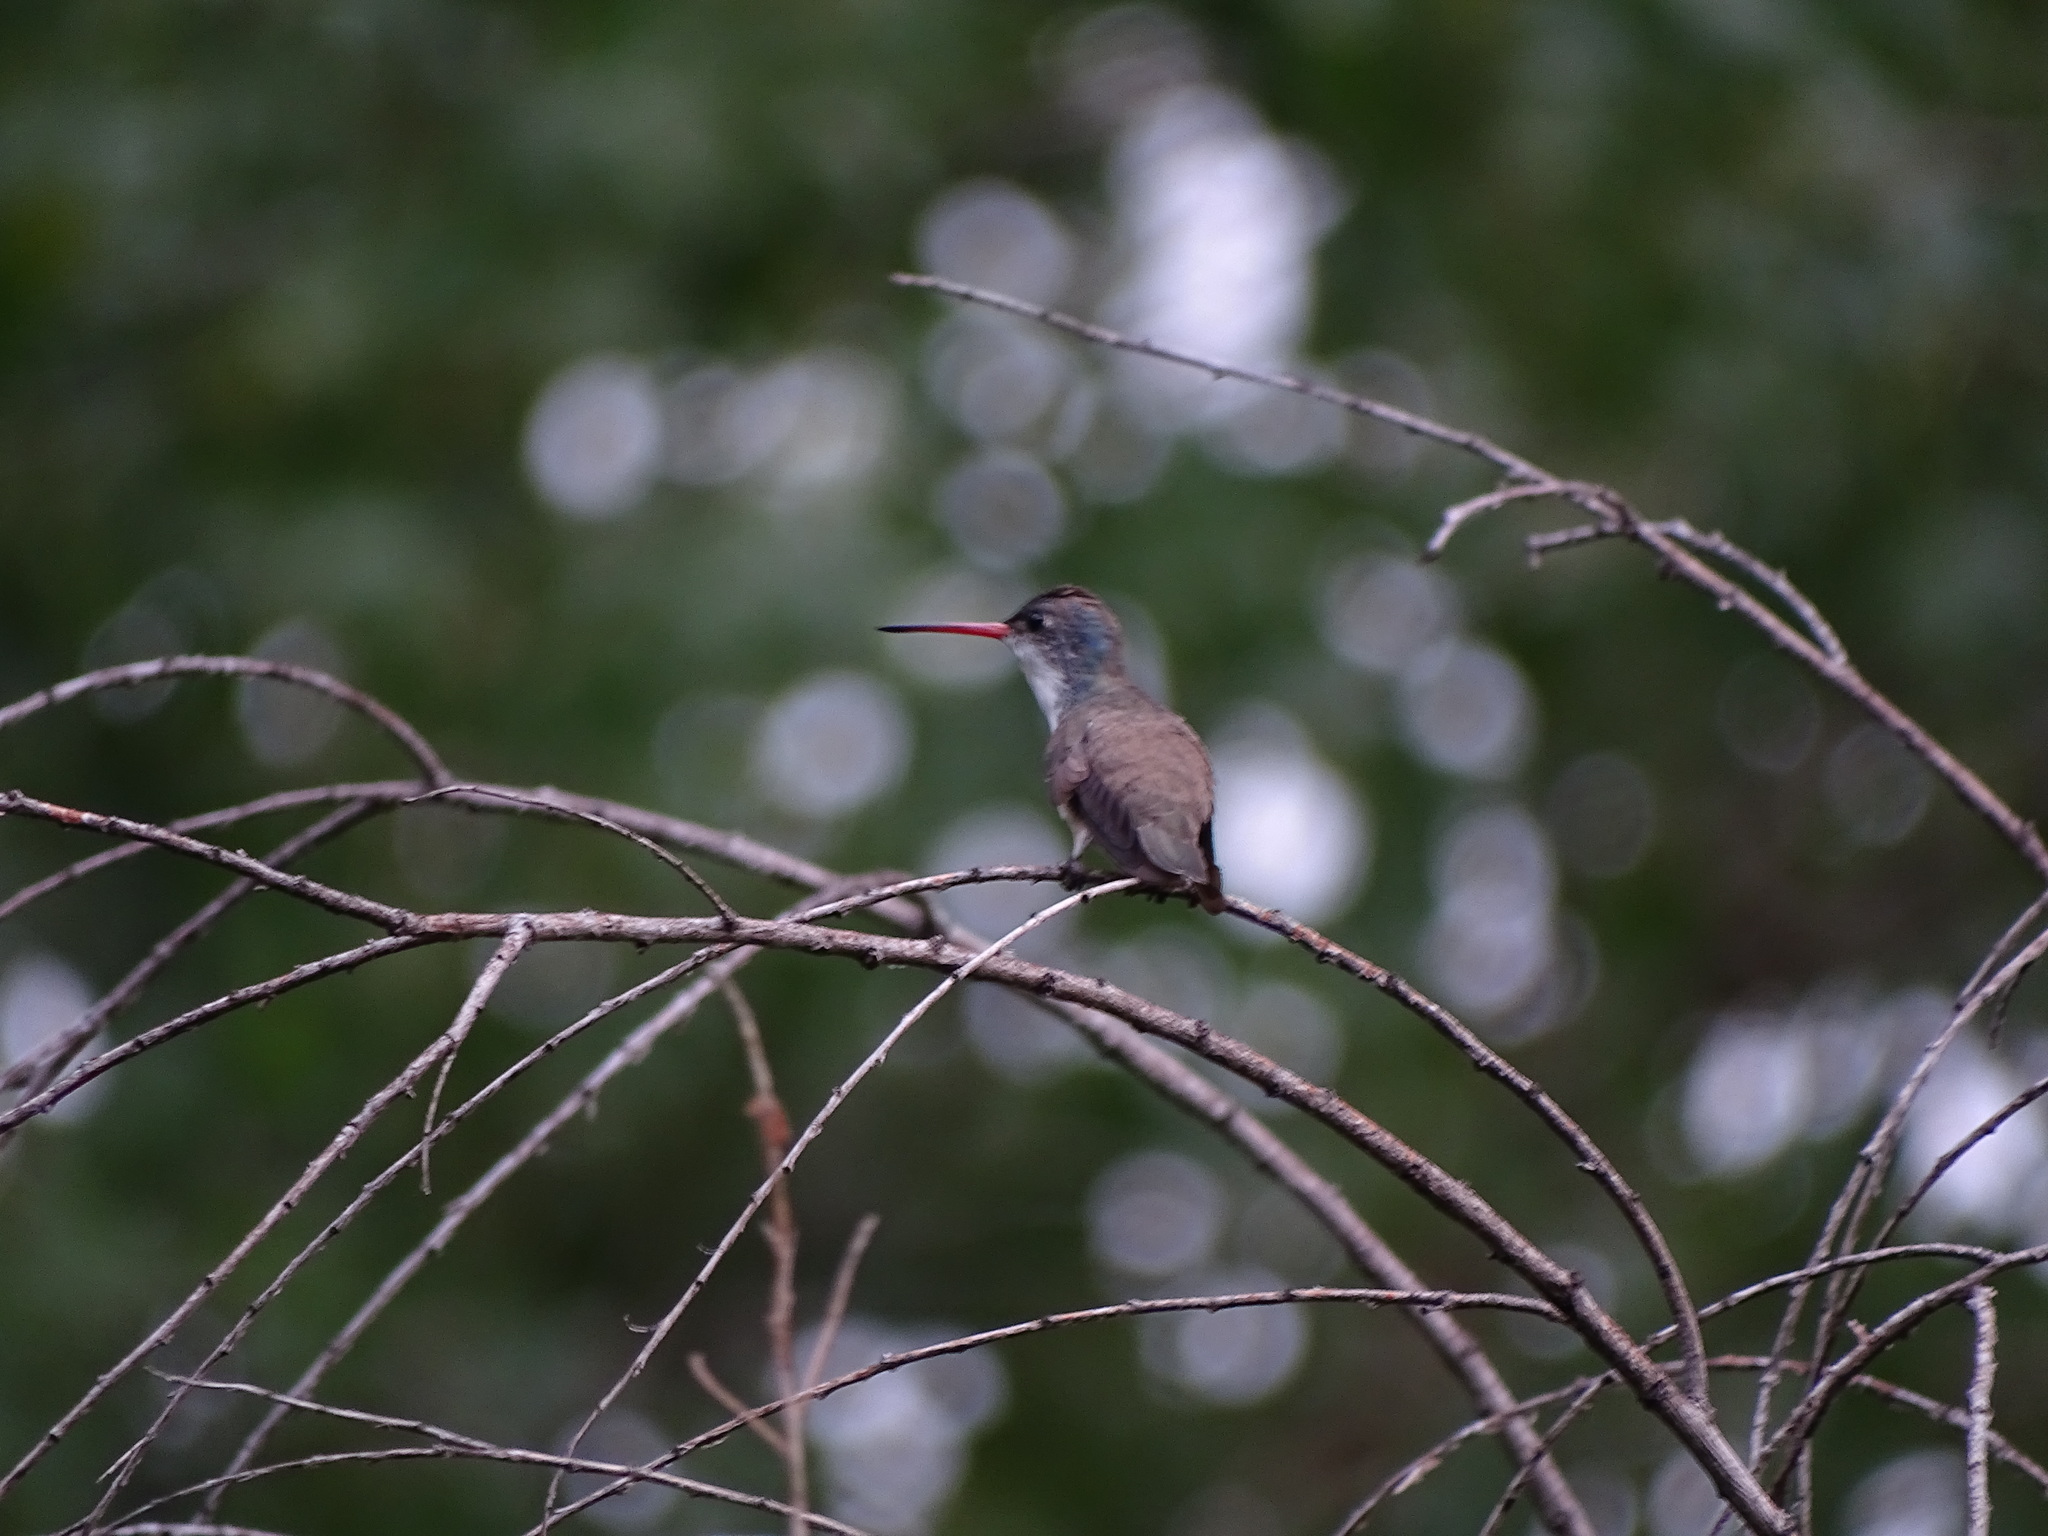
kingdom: Animalia
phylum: Chordata
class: Aves
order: Apodiformes
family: Trochilidae
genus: Leucolia
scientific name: Leucolia violiceps
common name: Violet-crowned hummingbird
